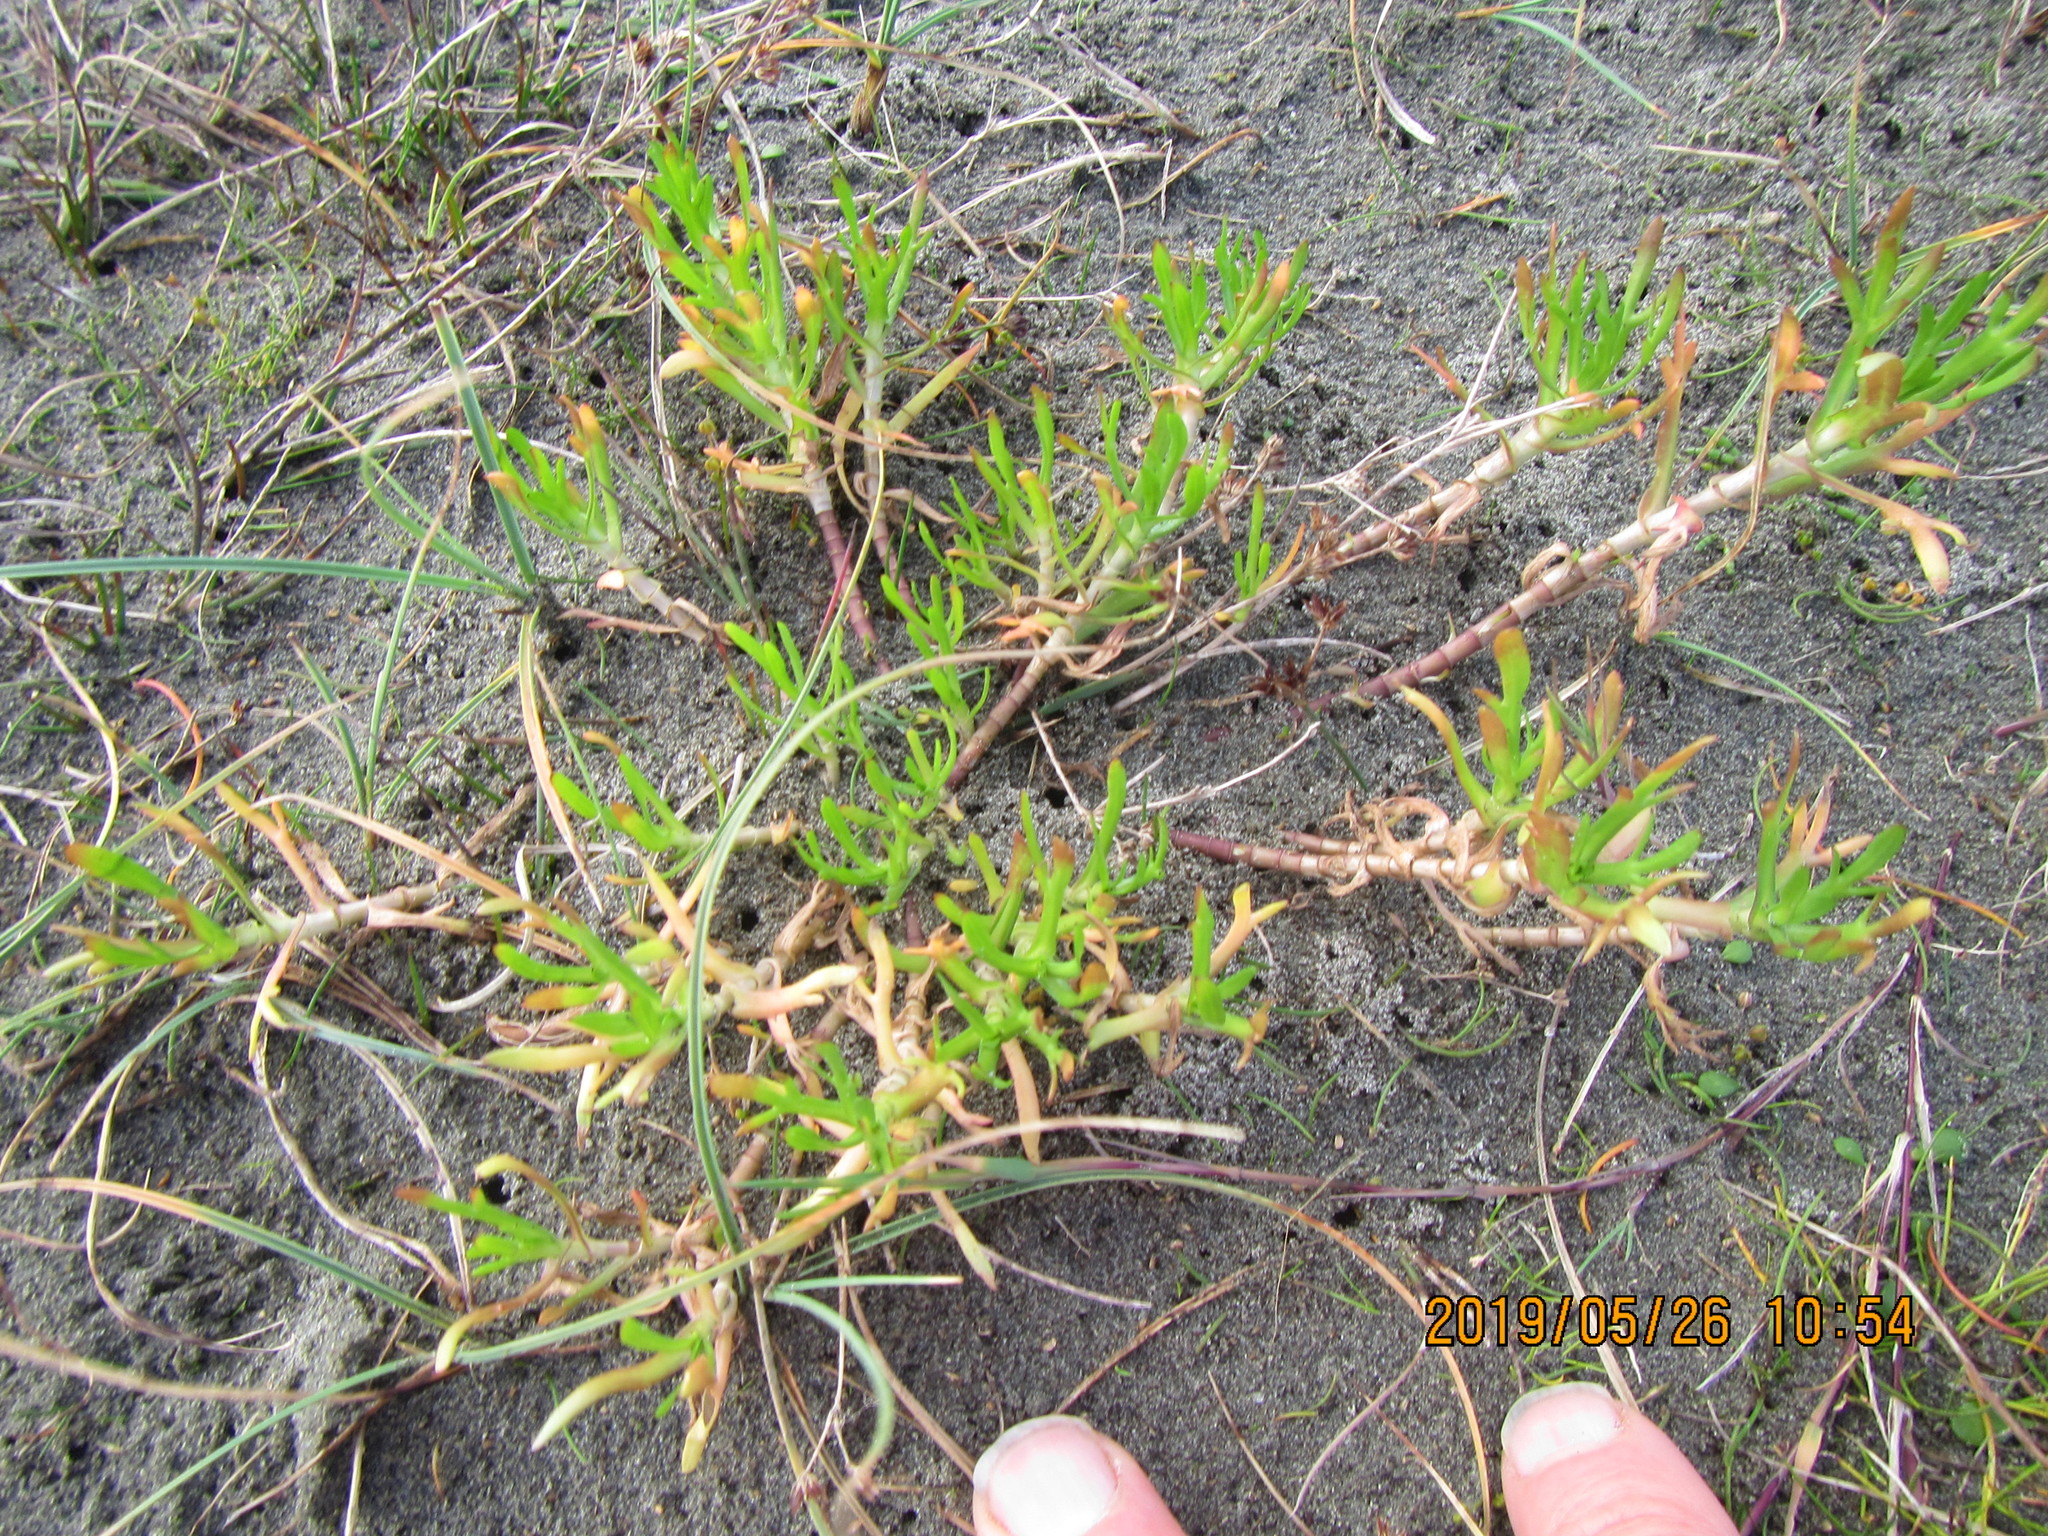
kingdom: Plantae
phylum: Tracheophyta
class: Magnoliopsida
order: Asterales
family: Asteraceae
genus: Cotula
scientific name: Cotula coronopifolia
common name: Buttonweed
